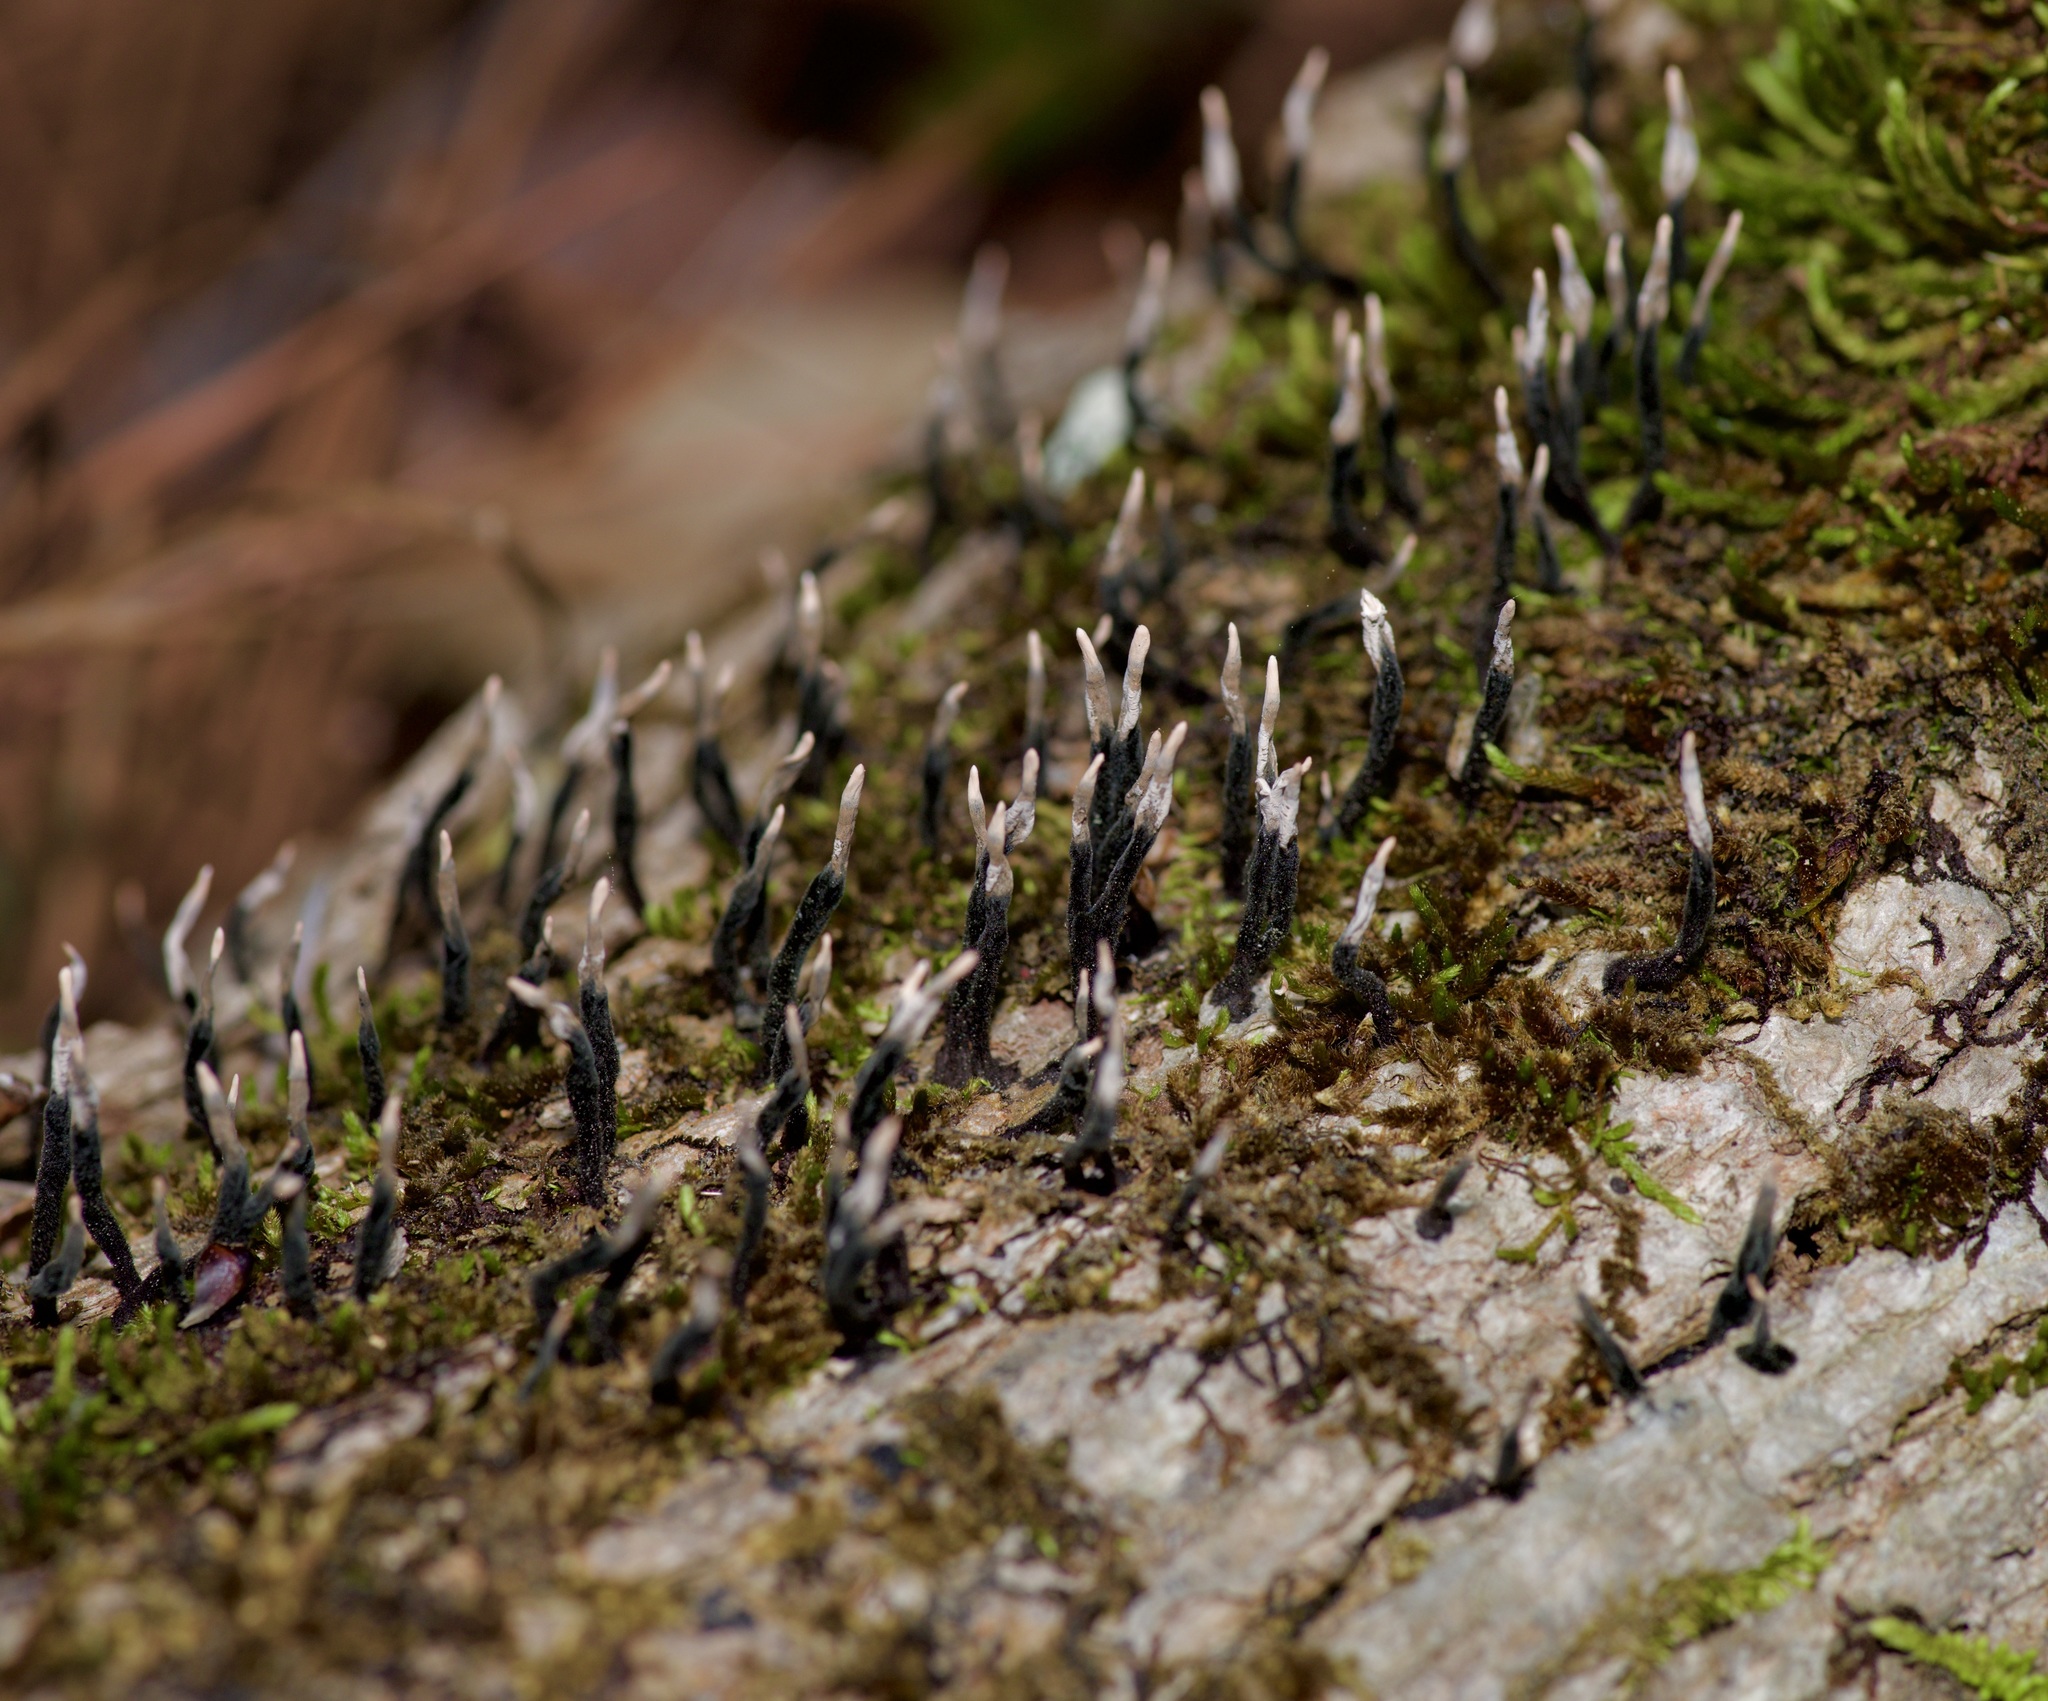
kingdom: Fungi
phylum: Ascomycota
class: Sordariomycetes
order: Xylariales
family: Xylariaceae
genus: Xylaria
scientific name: Xylaria hypoxylon
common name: Candle-snuff fungus
